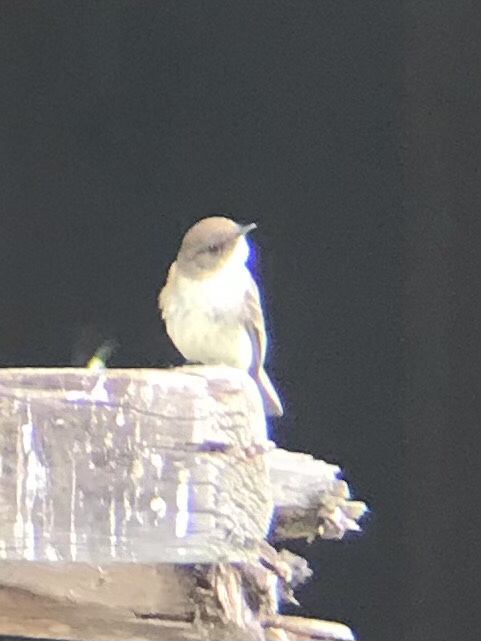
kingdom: Animalia
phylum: Chordata
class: Aves
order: Passeriformes
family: Tyrannidae
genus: Sayornis
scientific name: Sayornis phoebe
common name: Eastern phoebe
